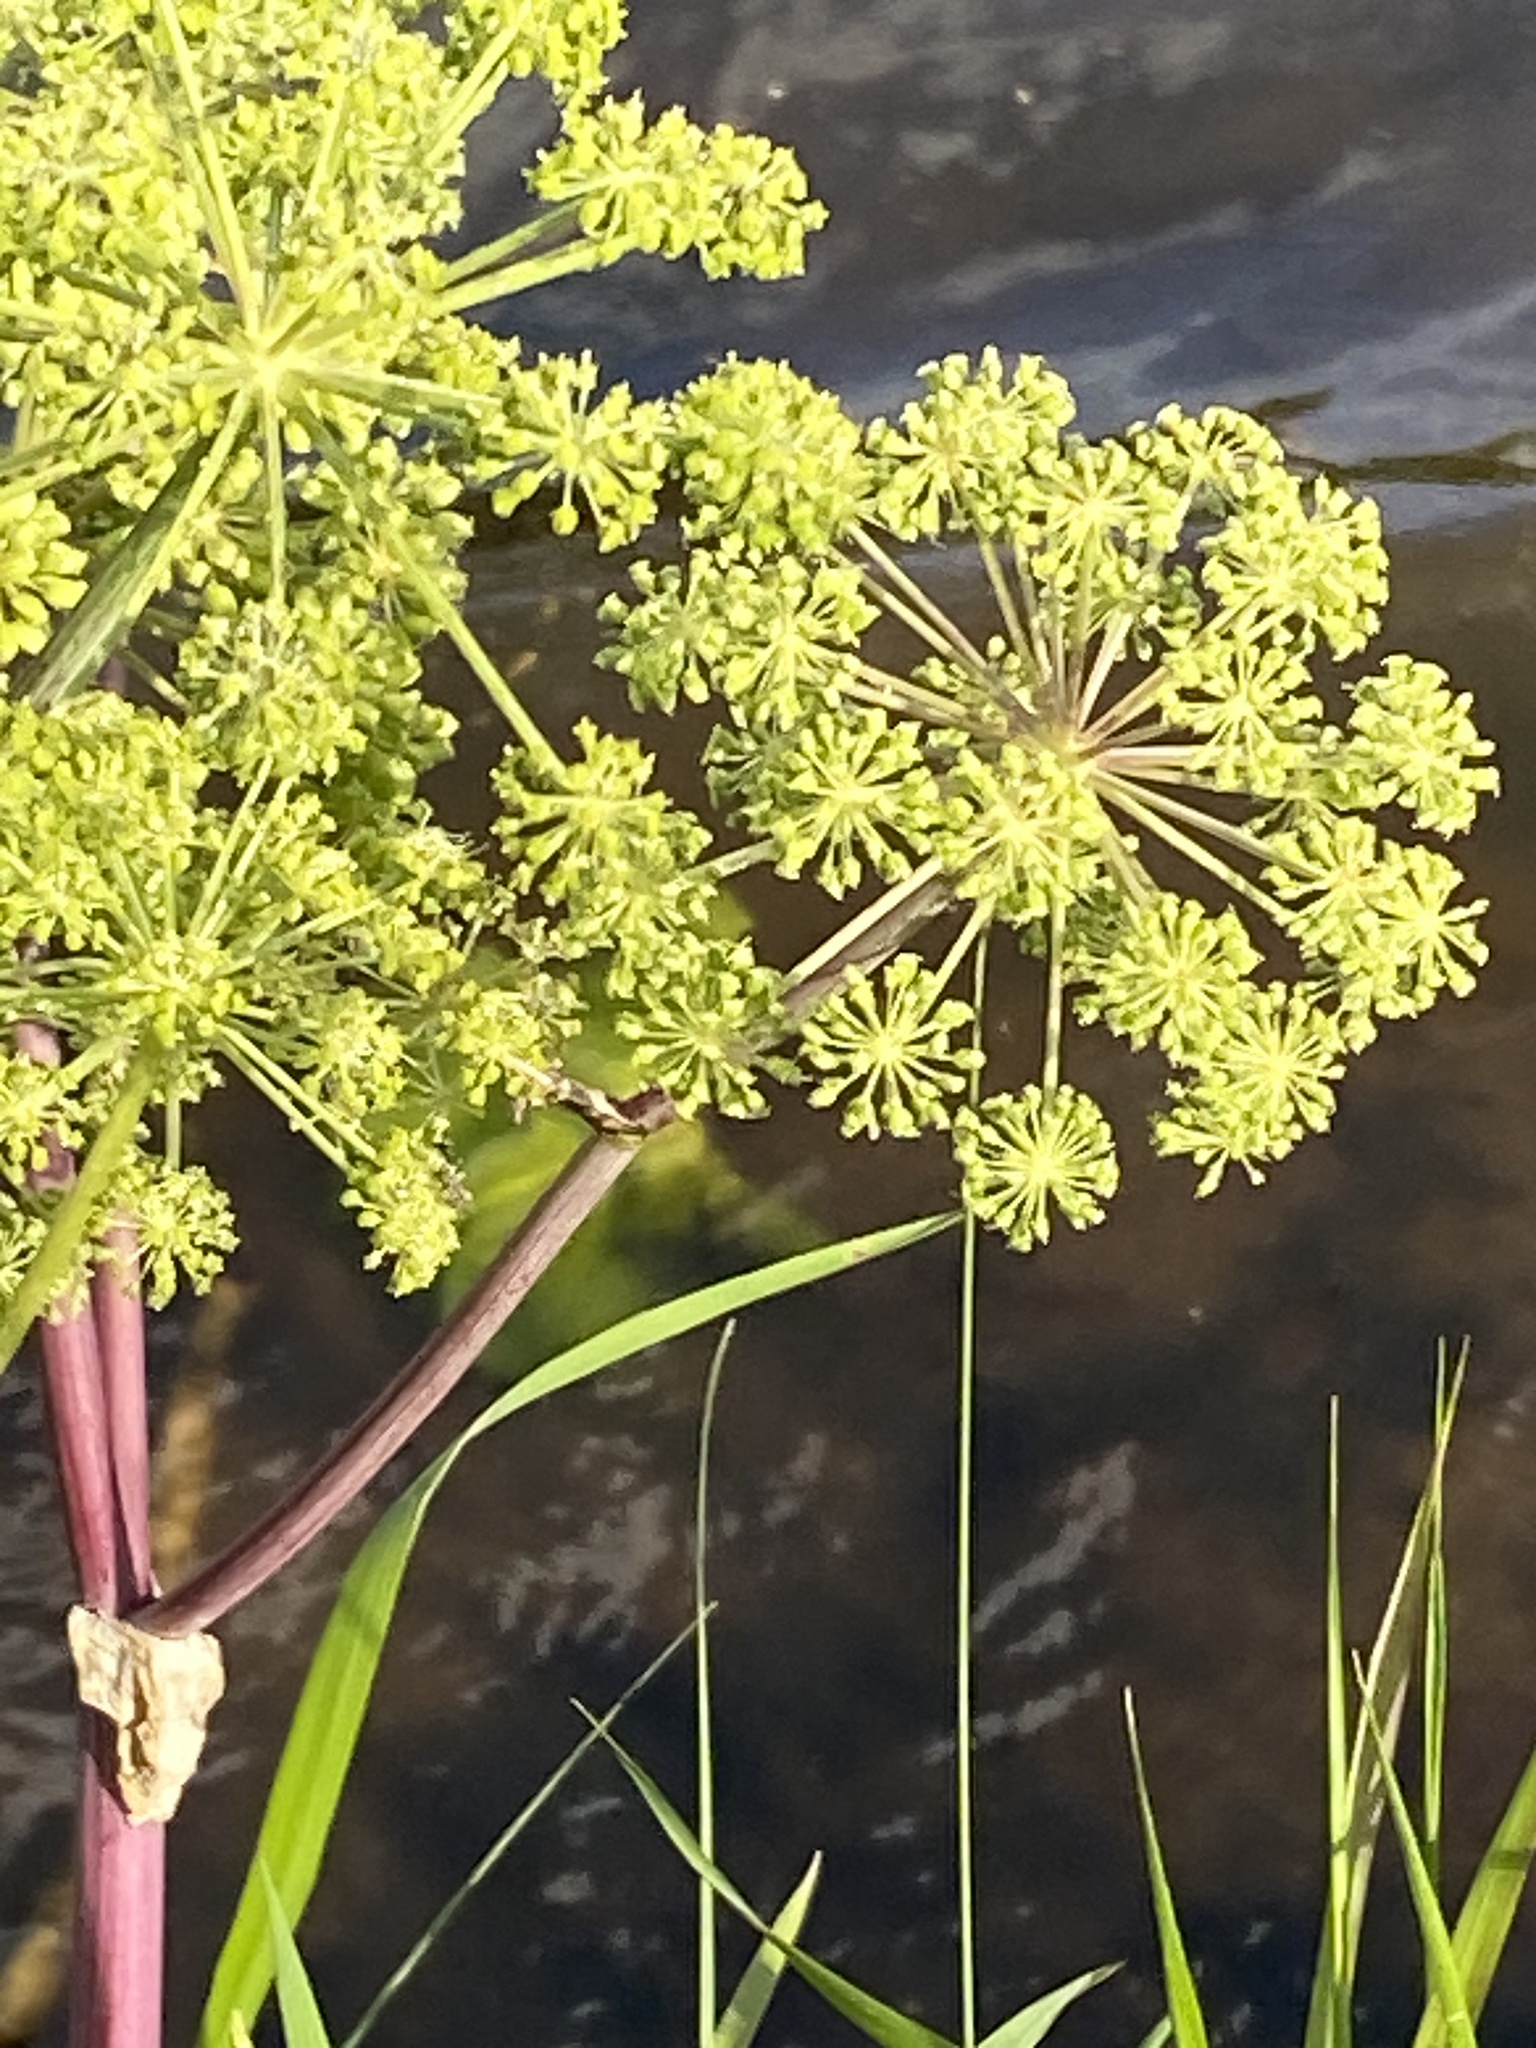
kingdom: Plantae
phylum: Tracheophyta
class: Magnoliopsida
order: Apiales
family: Apiaceae
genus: Angelica
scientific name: Angelica archangelica
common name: Garden angelica
